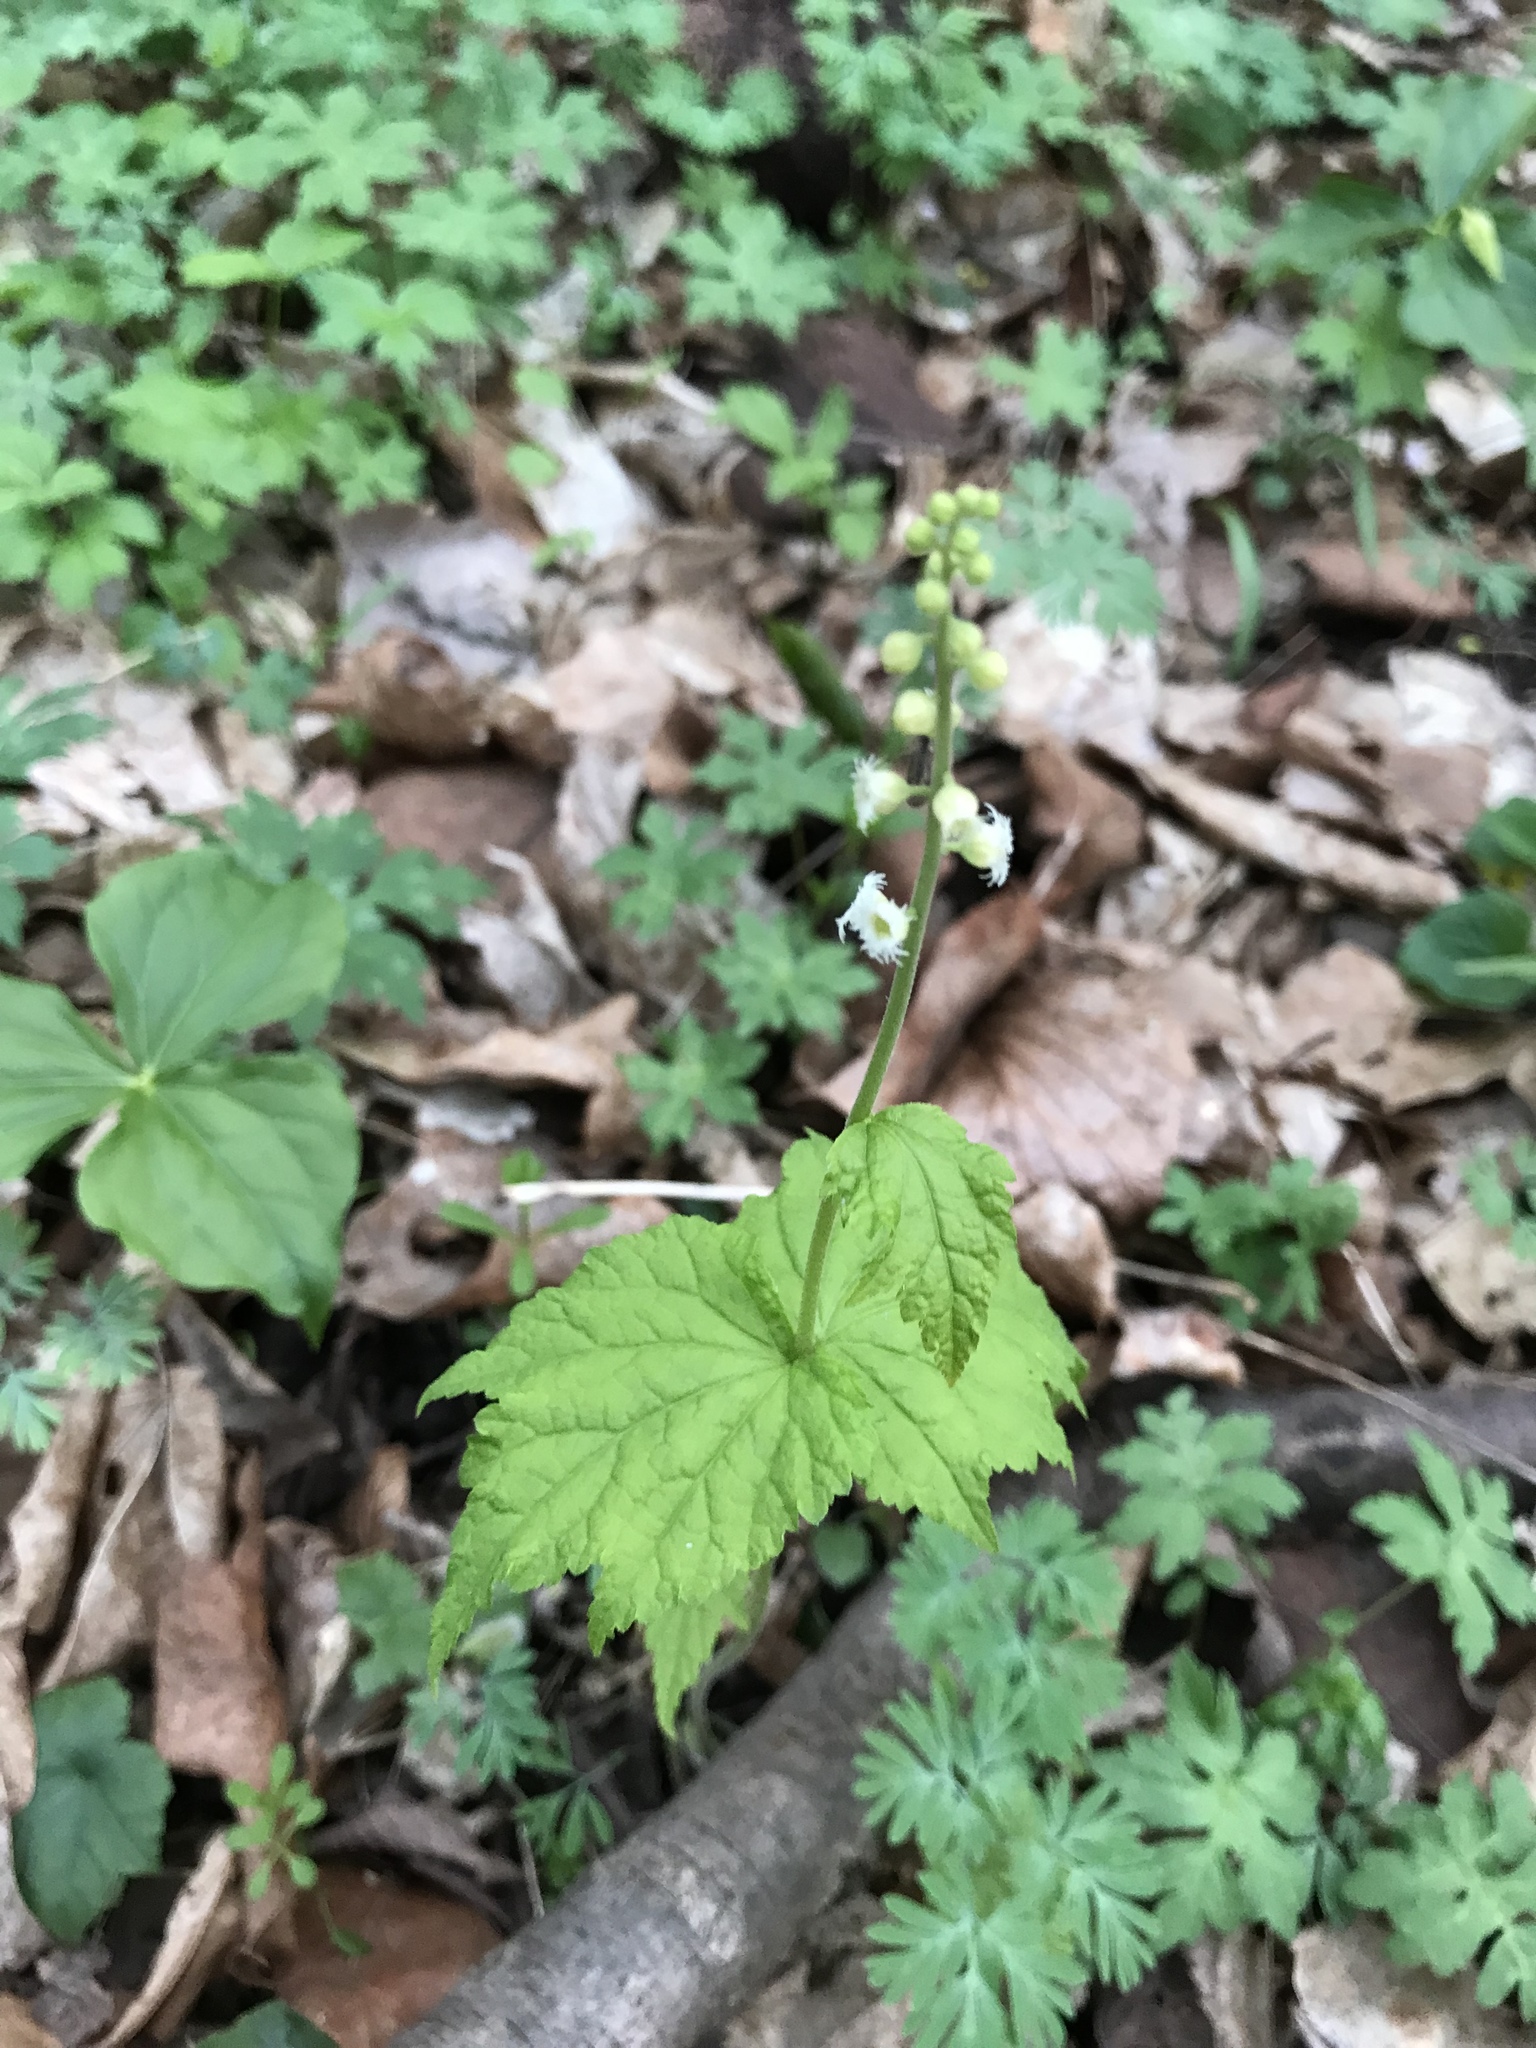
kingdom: Plantae
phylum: Tracheophyta
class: Magnoliopsida
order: Saxifragales
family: Saxifragaceae
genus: Mitella
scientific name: Mitella diphylla
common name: Coolwort
